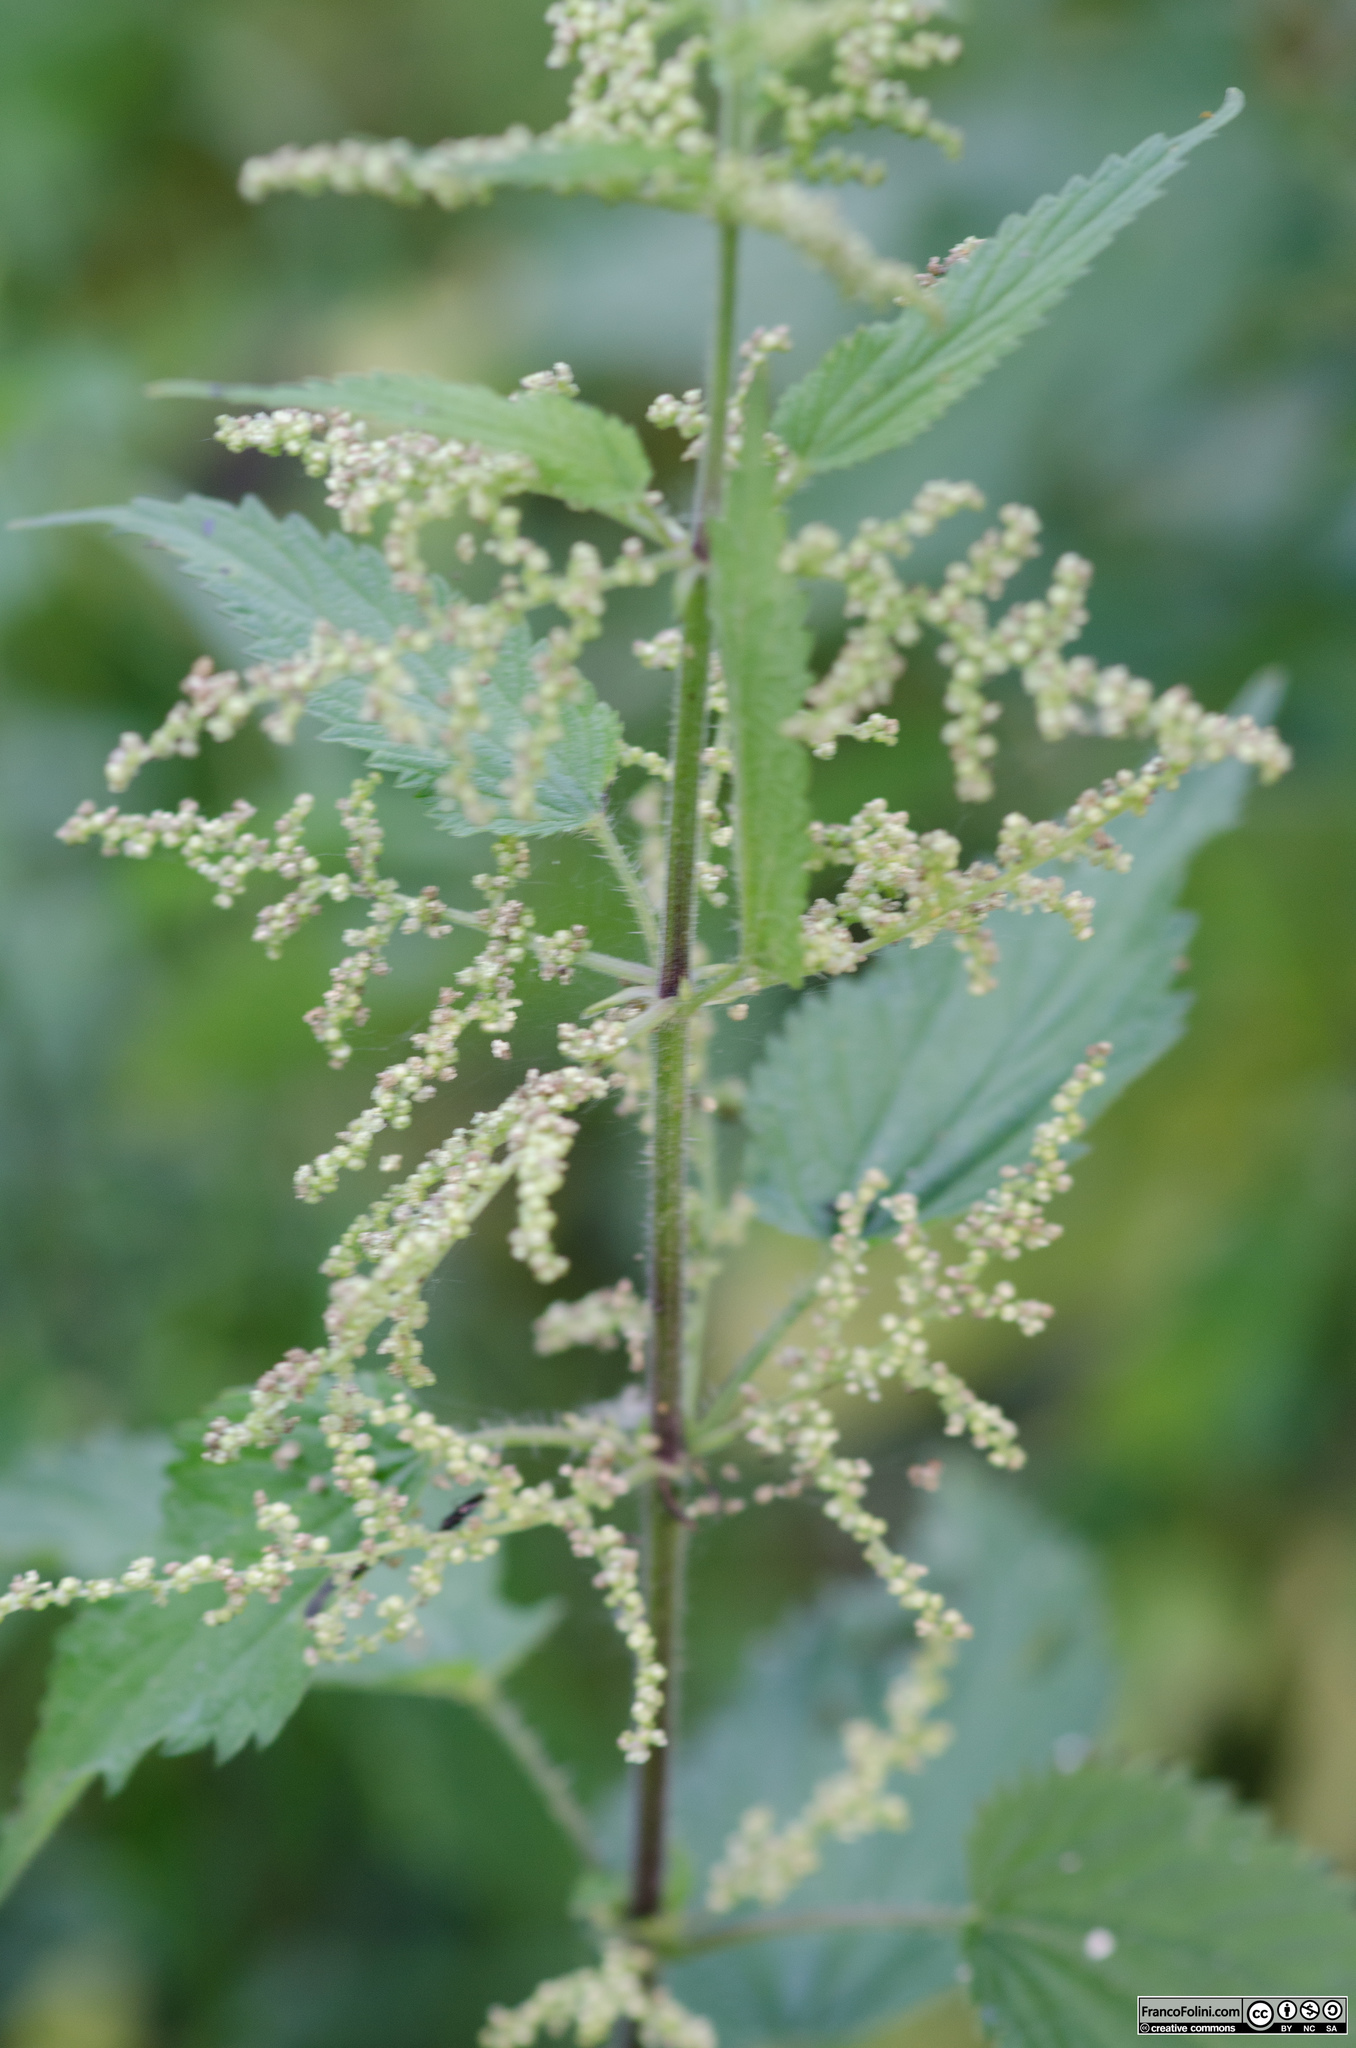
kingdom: Plantae
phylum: Tracheophyta
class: Magnoliopsida
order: Rosales
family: Urticaceae
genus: Urtica
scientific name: Urtica dioica
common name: Common nettle
